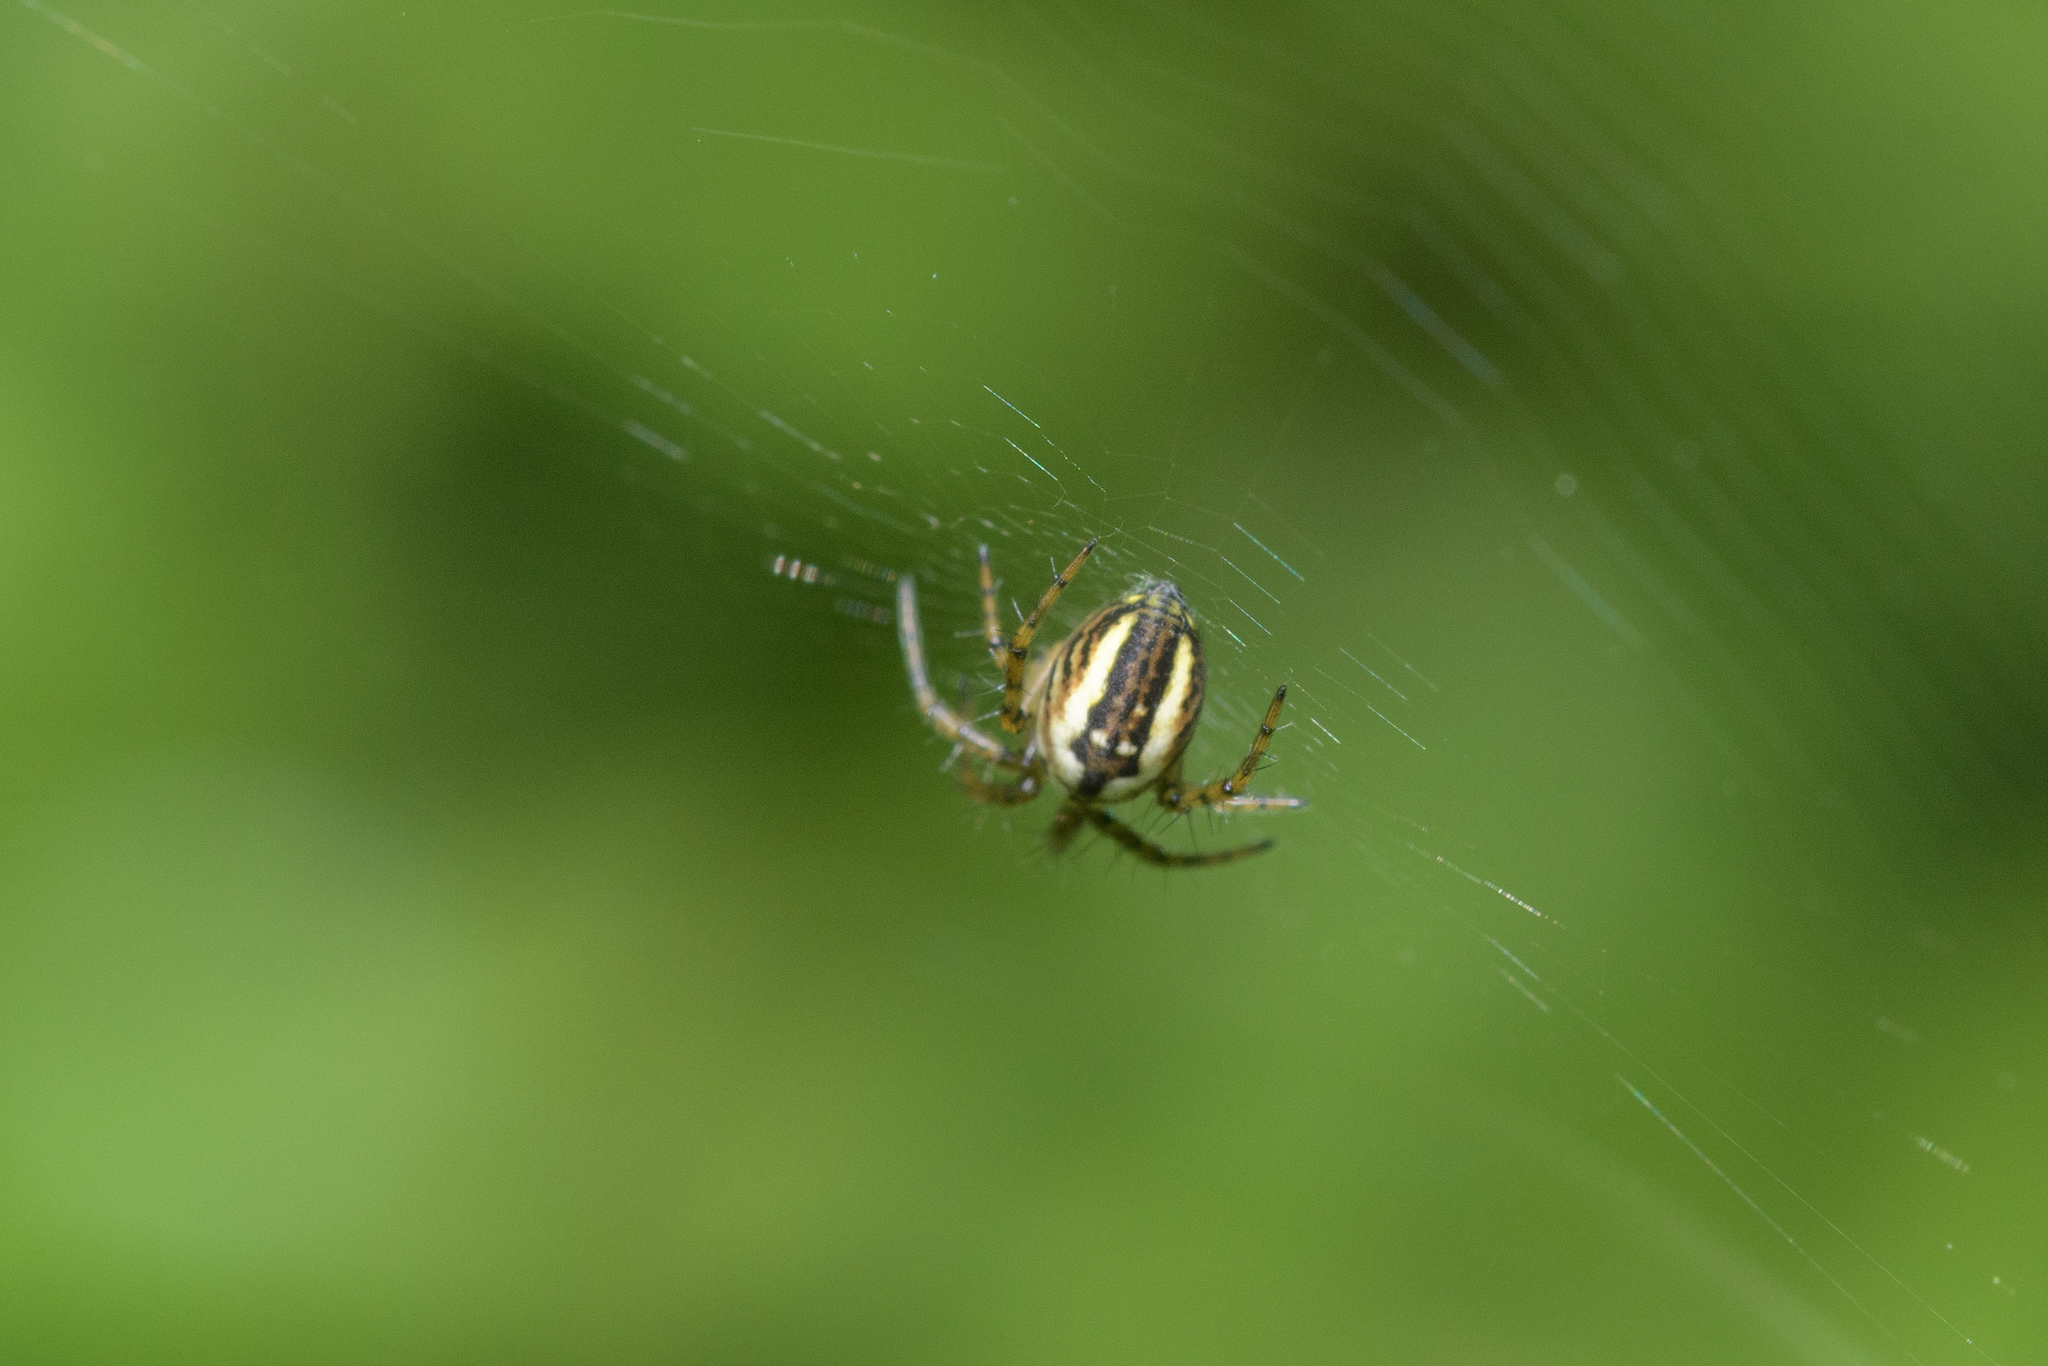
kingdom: Animalia
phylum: Arthropoda
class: Arachnida
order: Araneae
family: Araneidae
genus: Mangora
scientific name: Mangora acalypha
